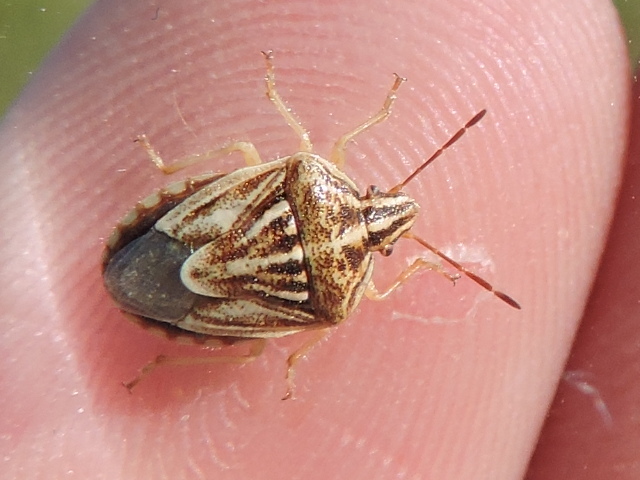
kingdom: Animalia
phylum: Arthropoda
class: Insecta
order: Hemiptera
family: Pentatomidae
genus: Trichopepla
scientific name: Trichopepla semivittata
